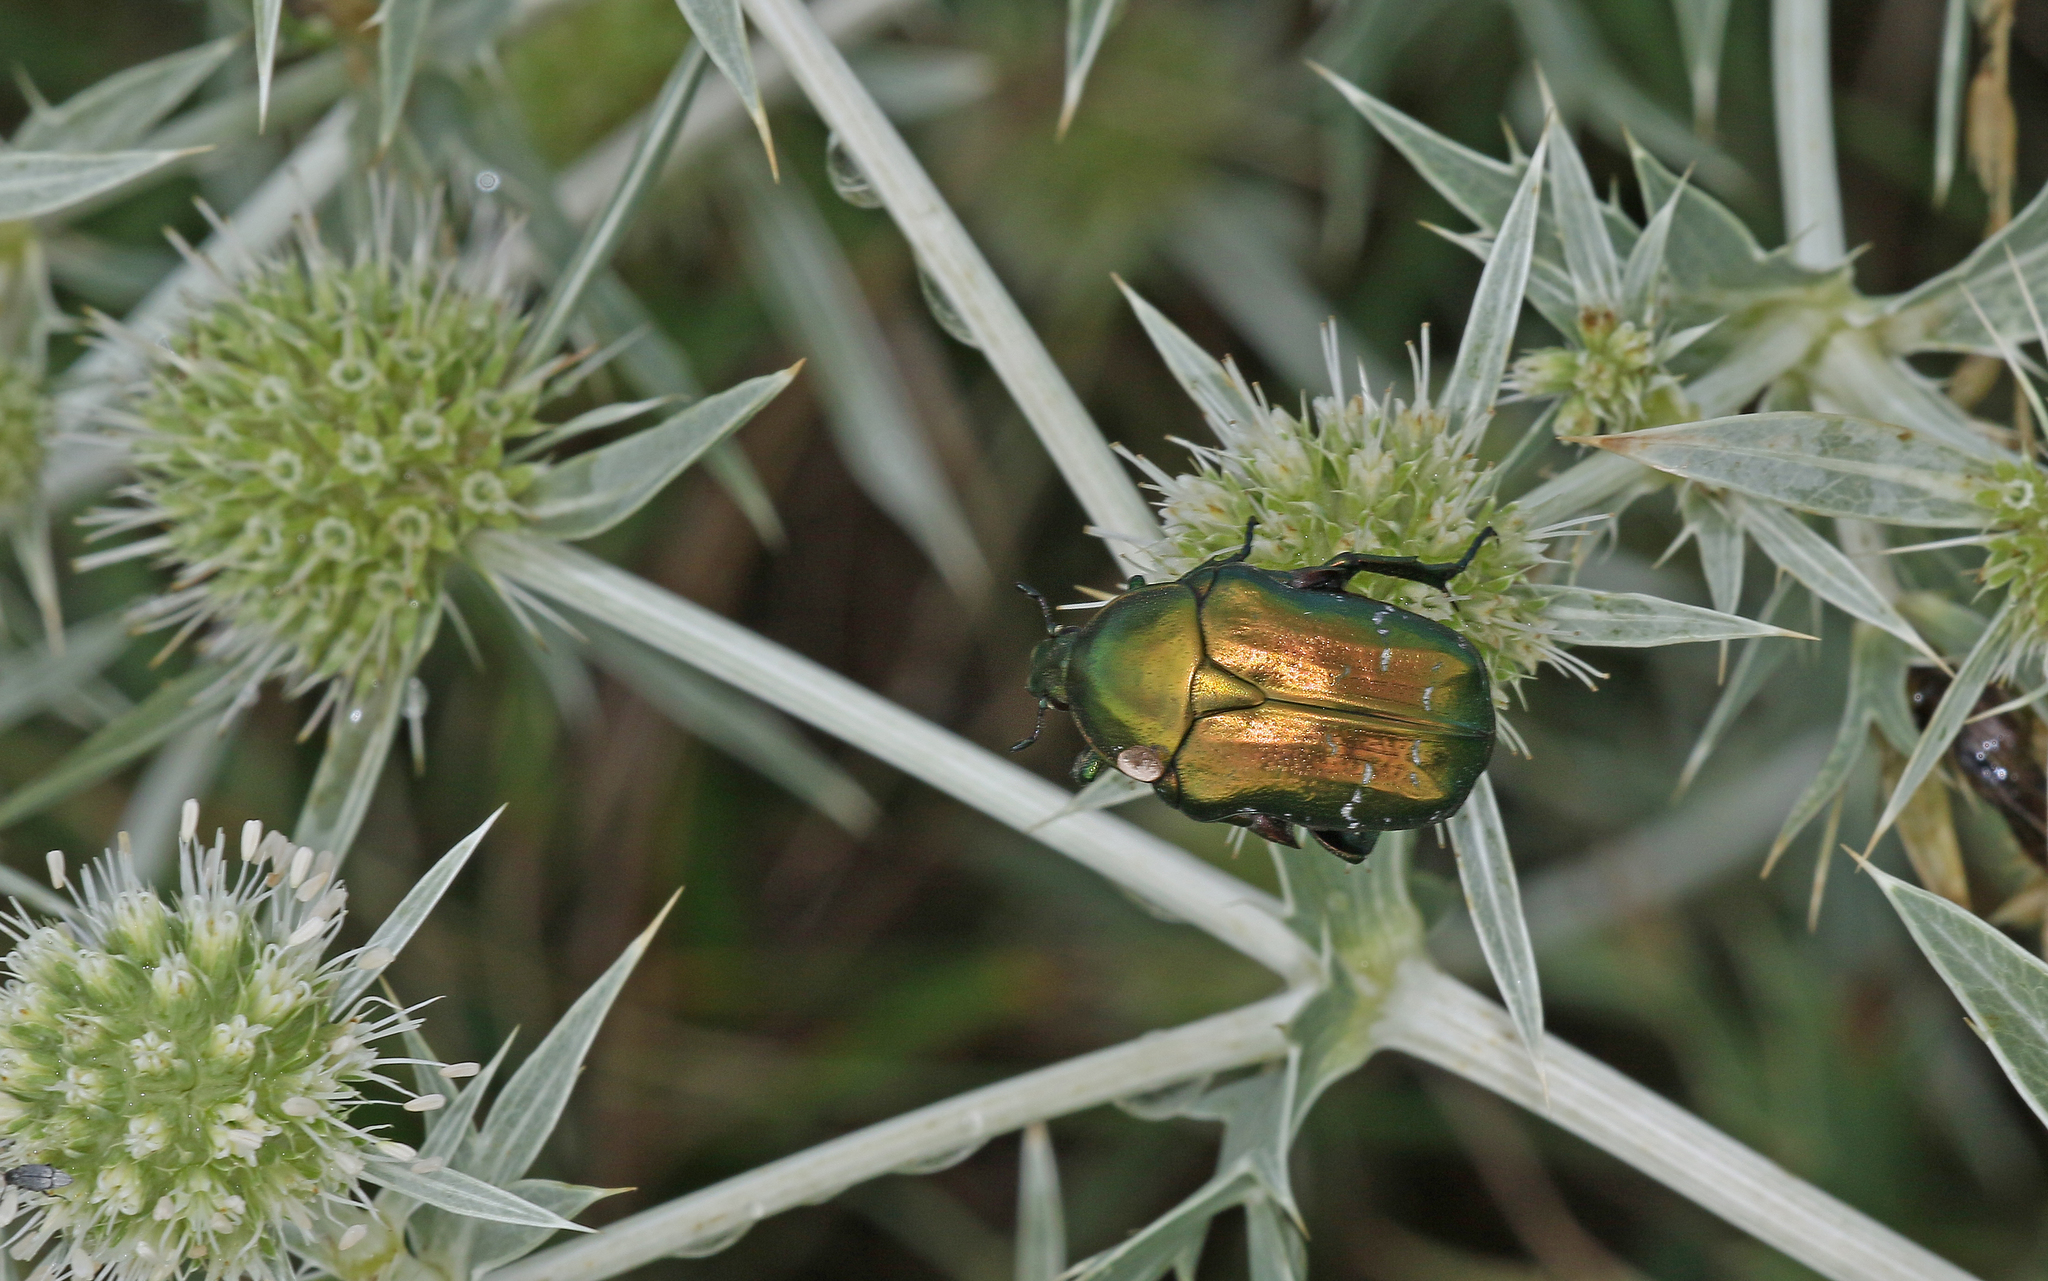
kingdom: Animalia
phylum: Arthropoda
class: Insecta
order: Coleoptera
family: Scarabaeidae
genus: Cetonia
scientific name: Cetonia aurata
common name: Rose chafer
